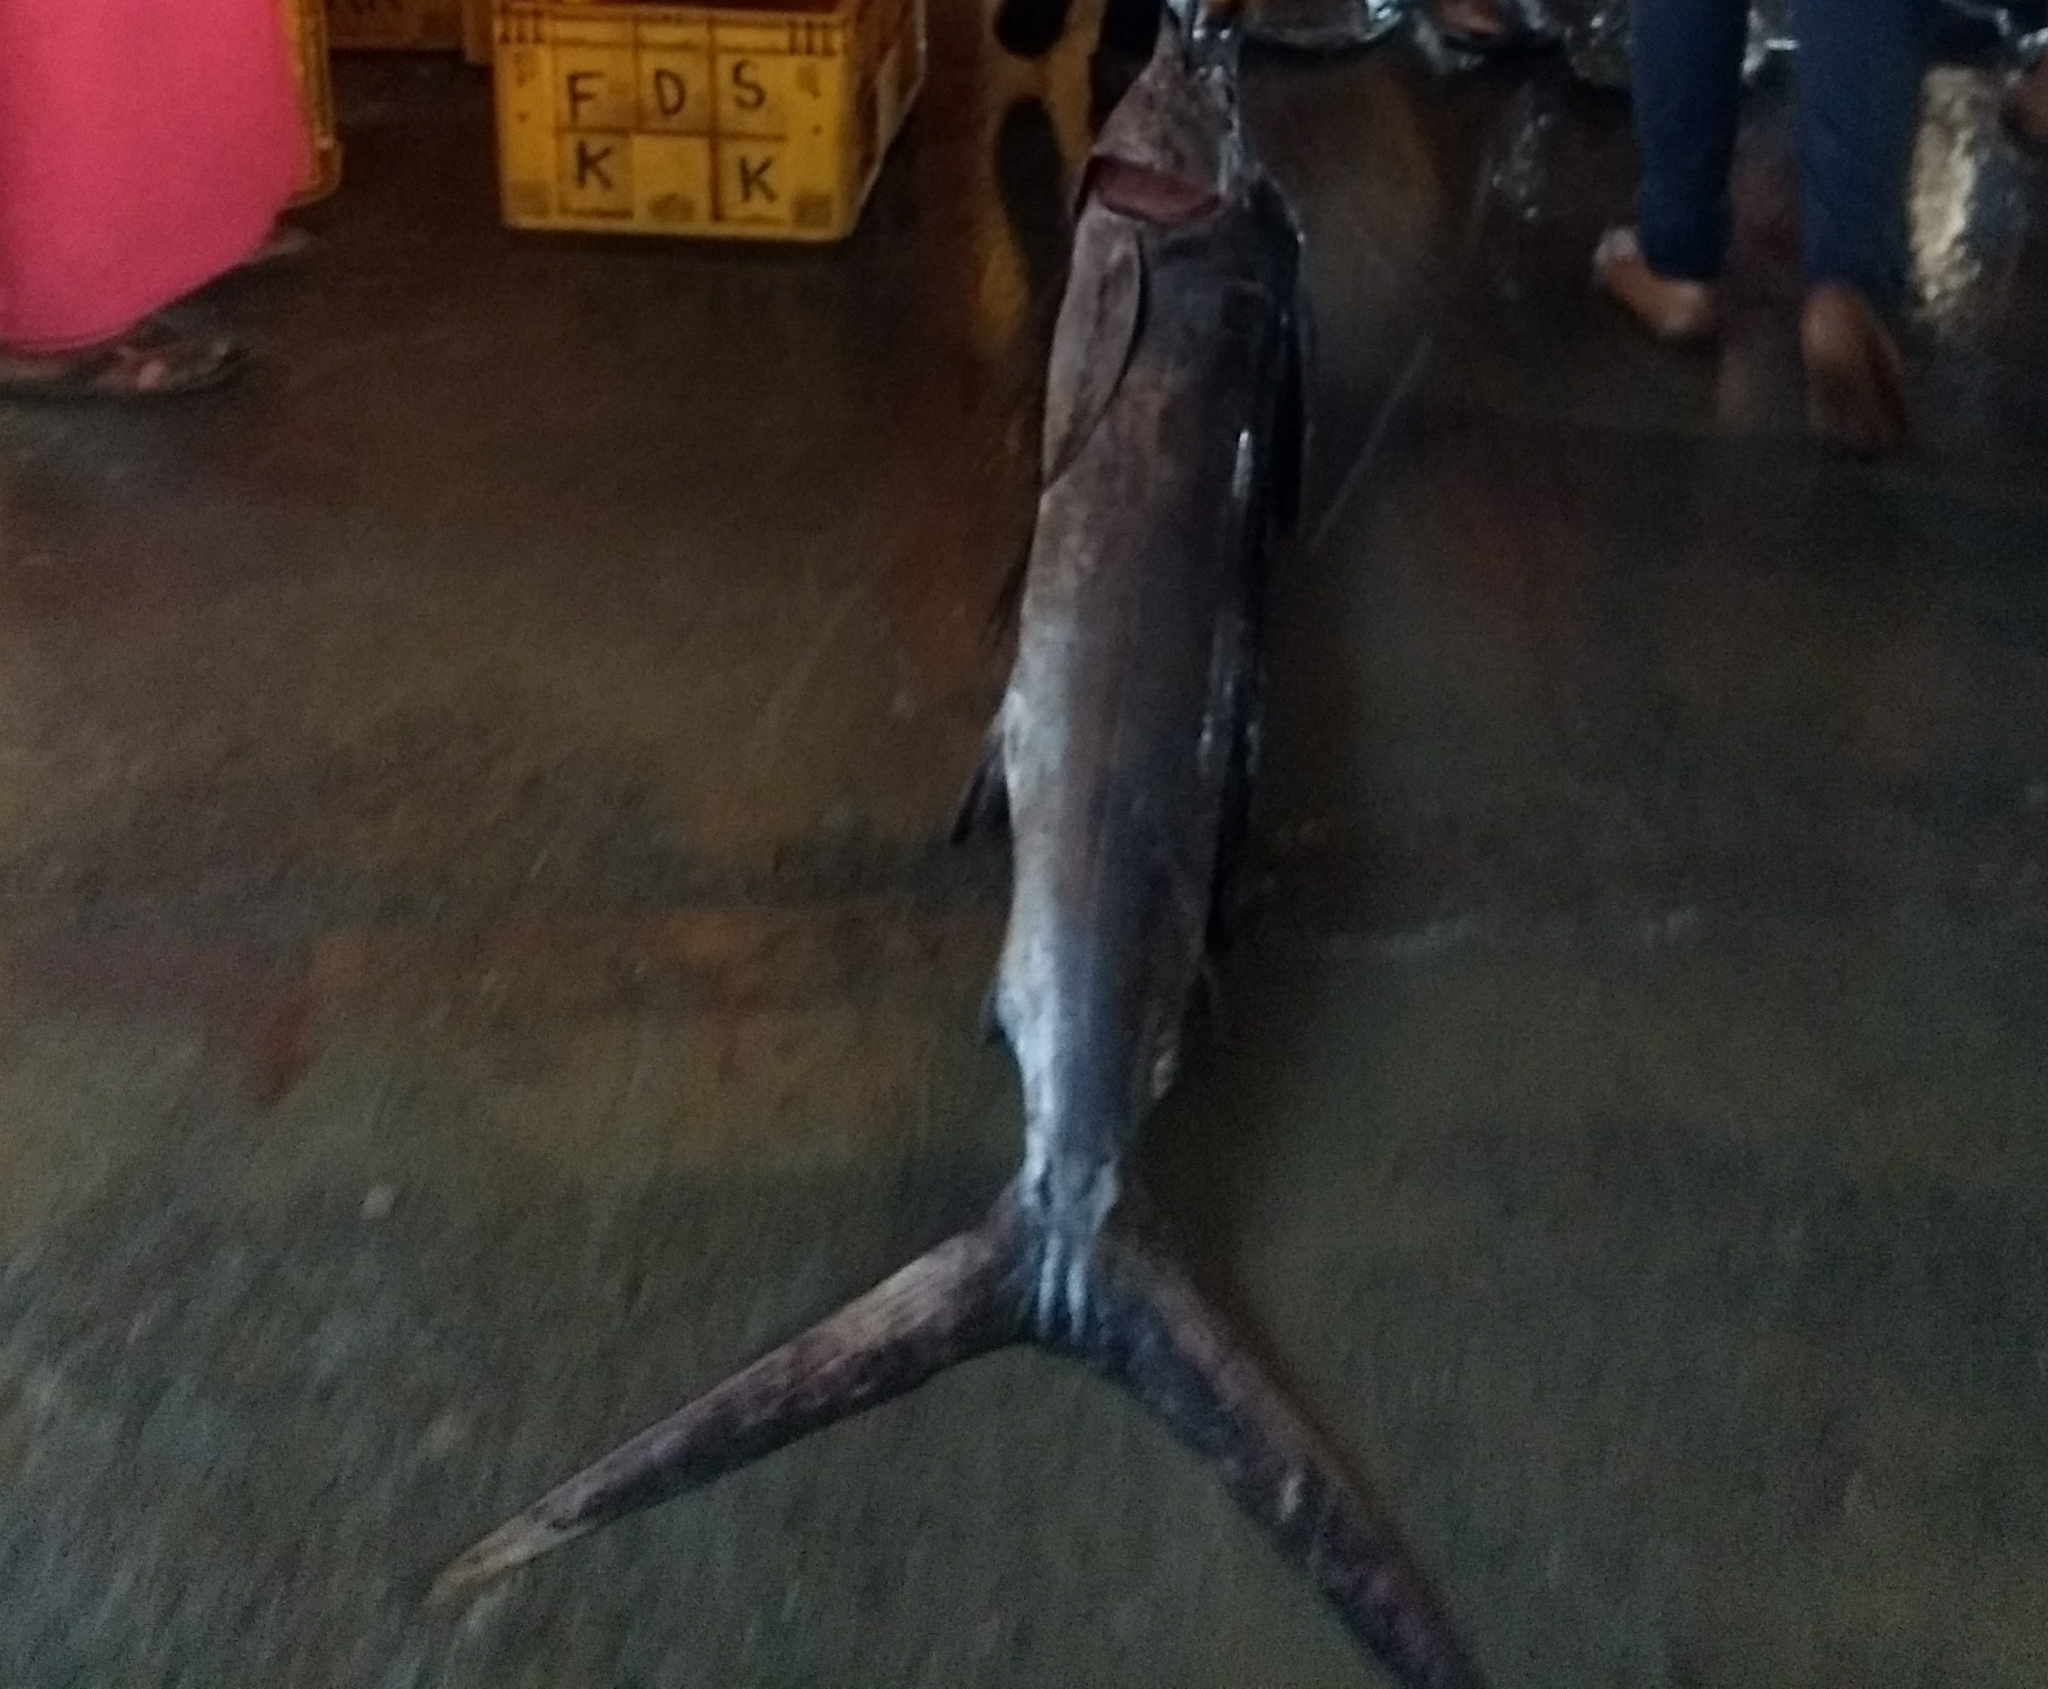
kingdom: Animalia
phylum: Chordata
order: Perciformes
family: Istiophoridae
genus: Istiophorus
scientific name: Istiophorus platypterus
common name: Sailfish
